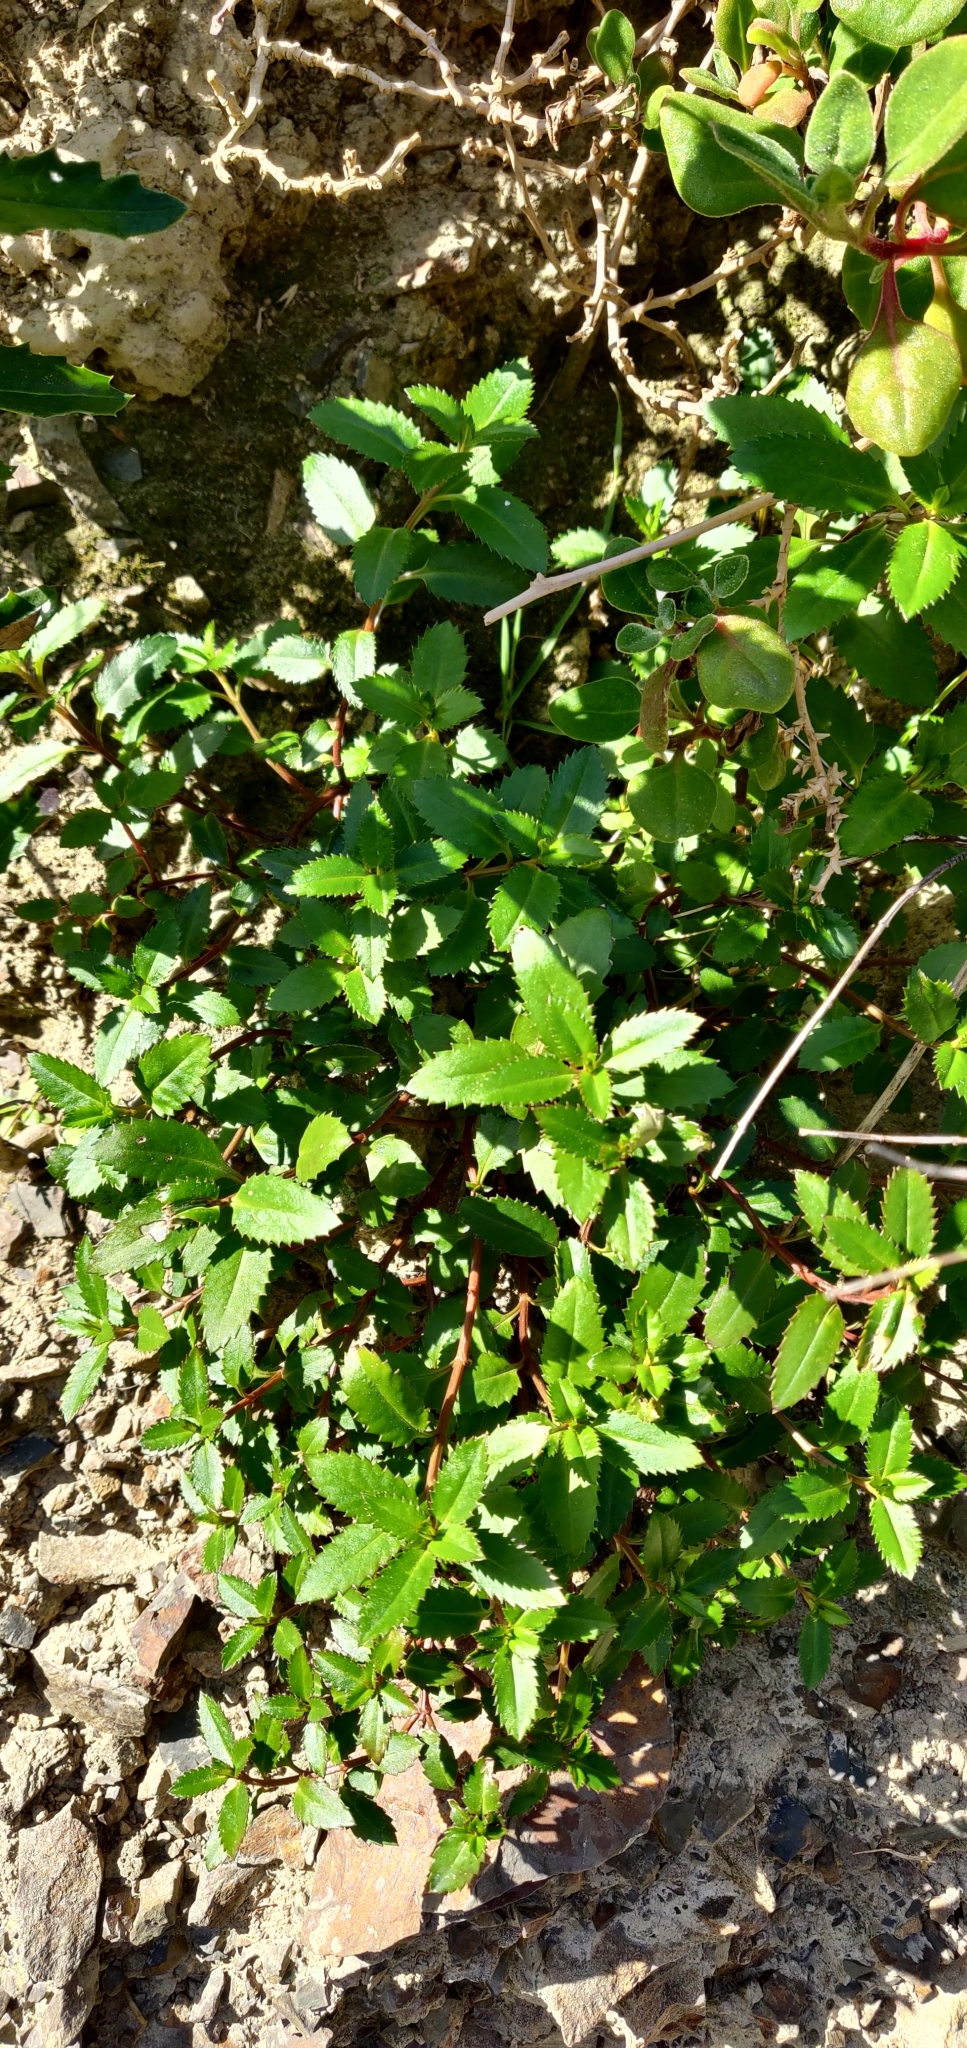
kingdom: Plantae
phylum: Tracheophyta
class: Magnoliopsida
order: Saxifragales
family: Haloragaceae
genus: Haloragis
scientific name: Haloragis erecta
